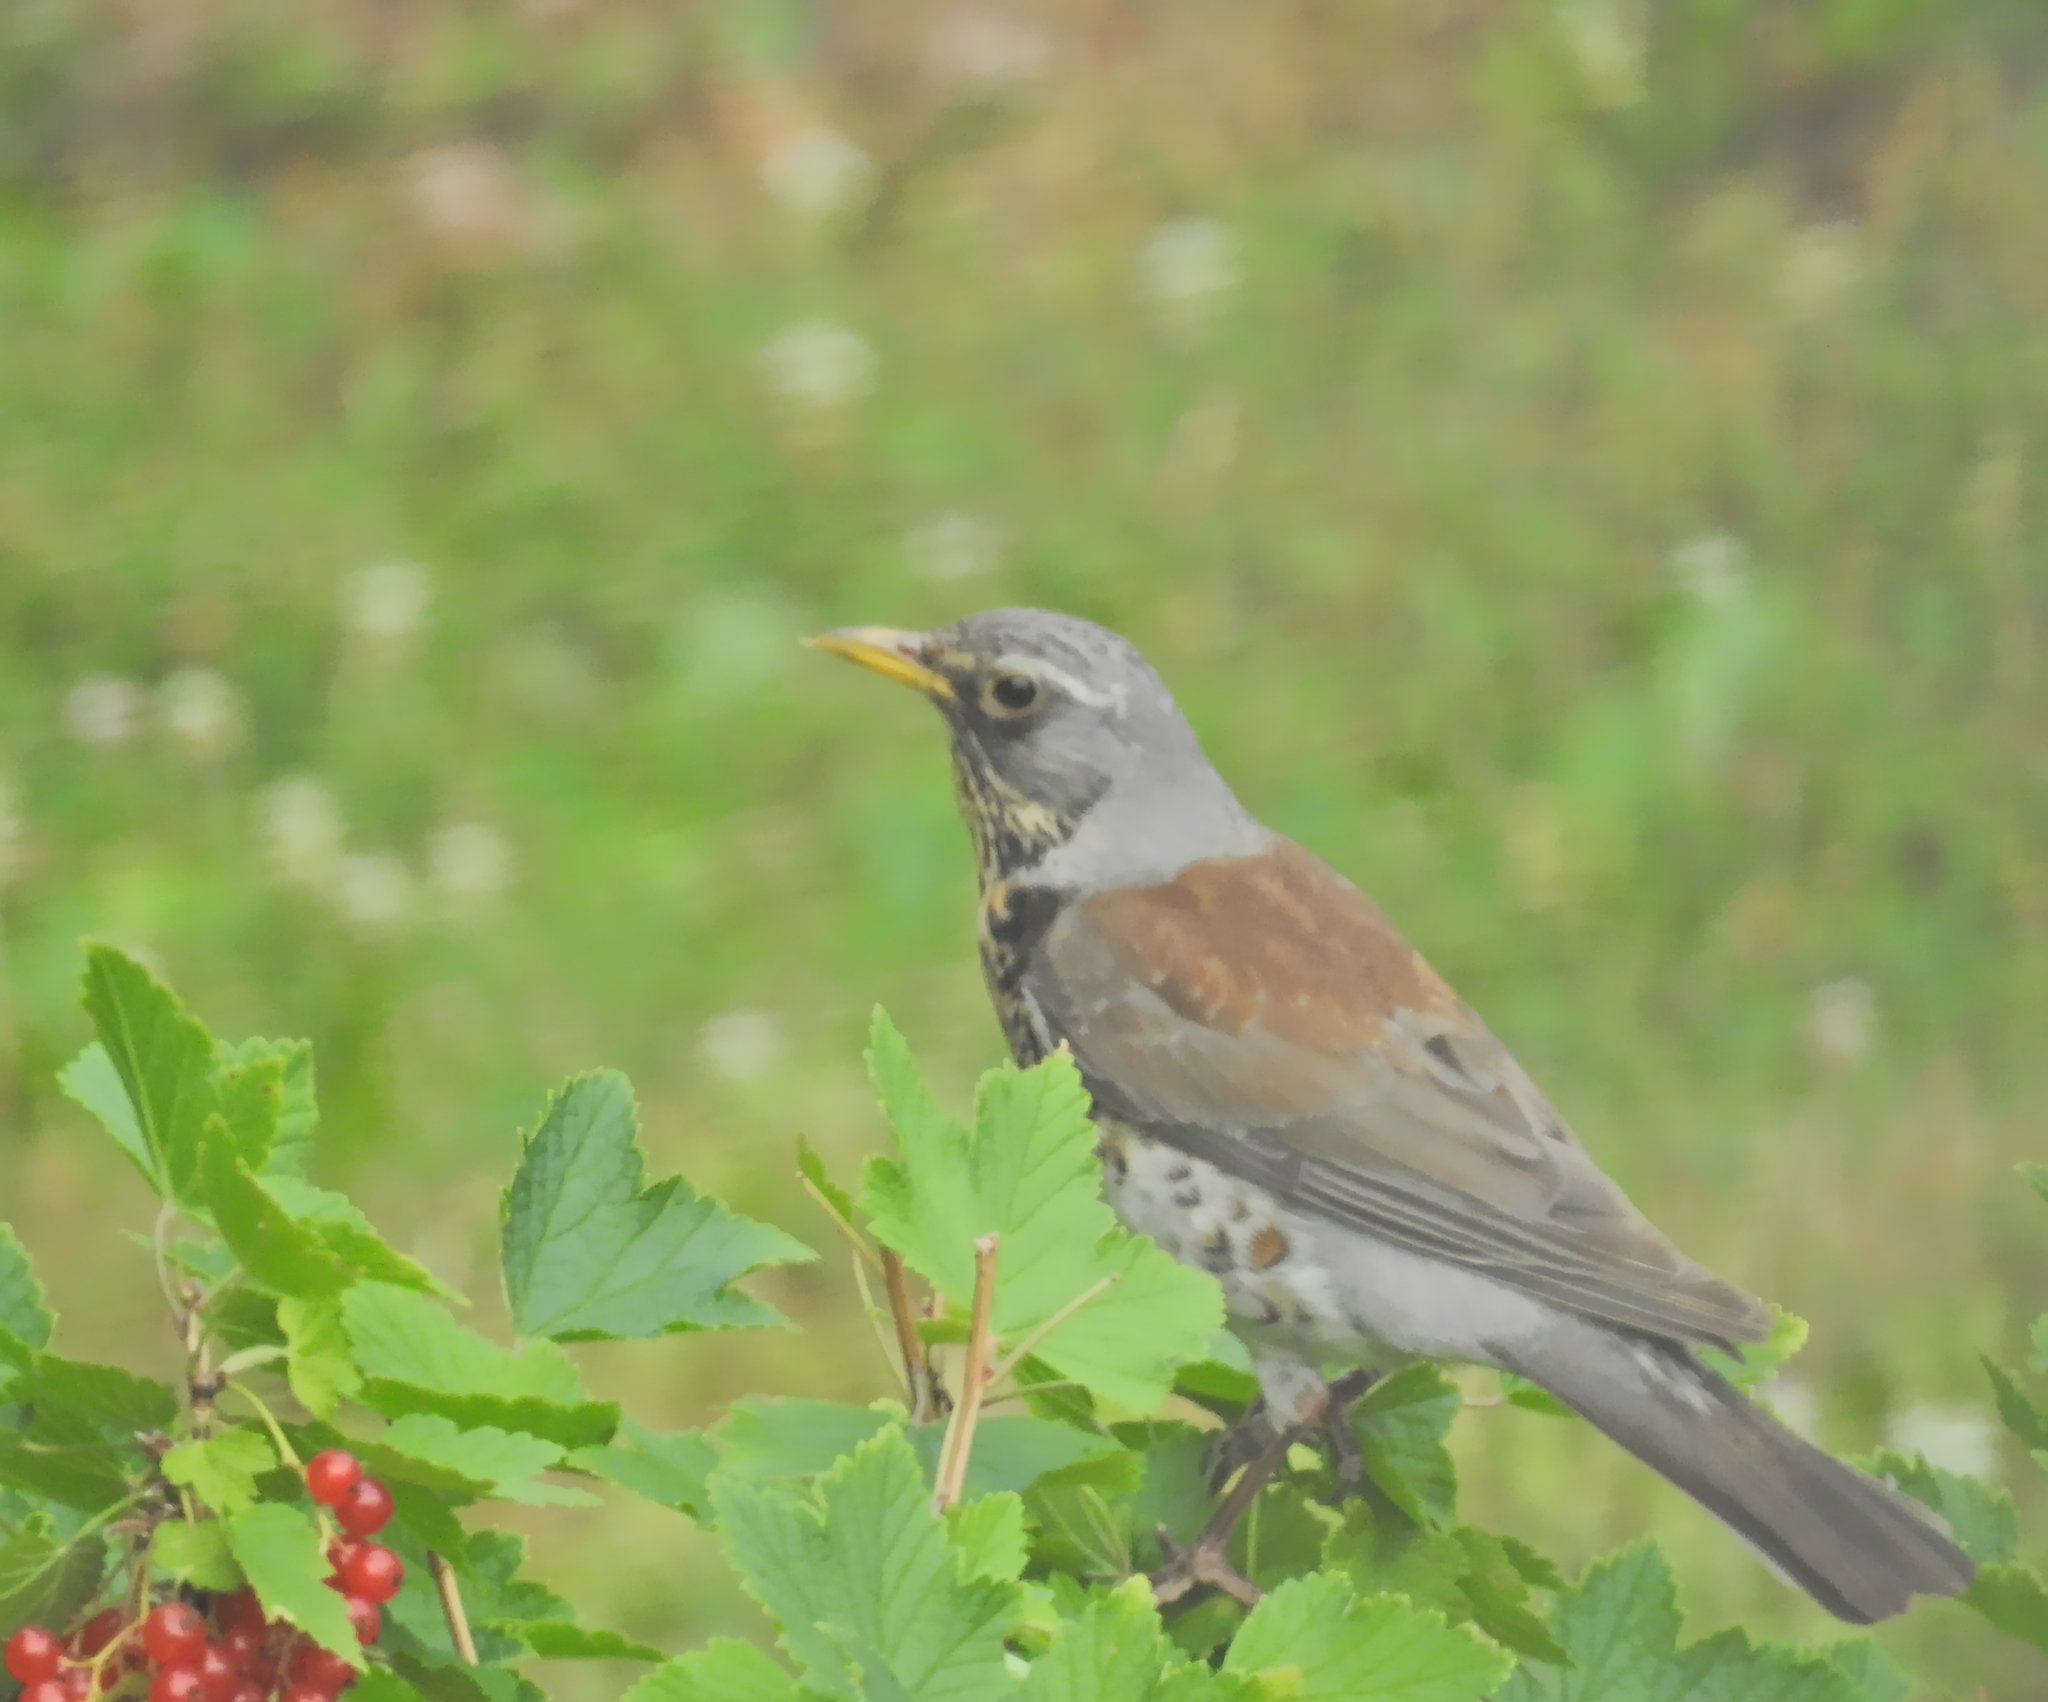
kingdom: Animalia
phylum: Chordata
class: Aves
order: Passeriformes
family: Turdidae
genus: Turdus
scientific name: Turdus pilaris
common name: Fieldfare
